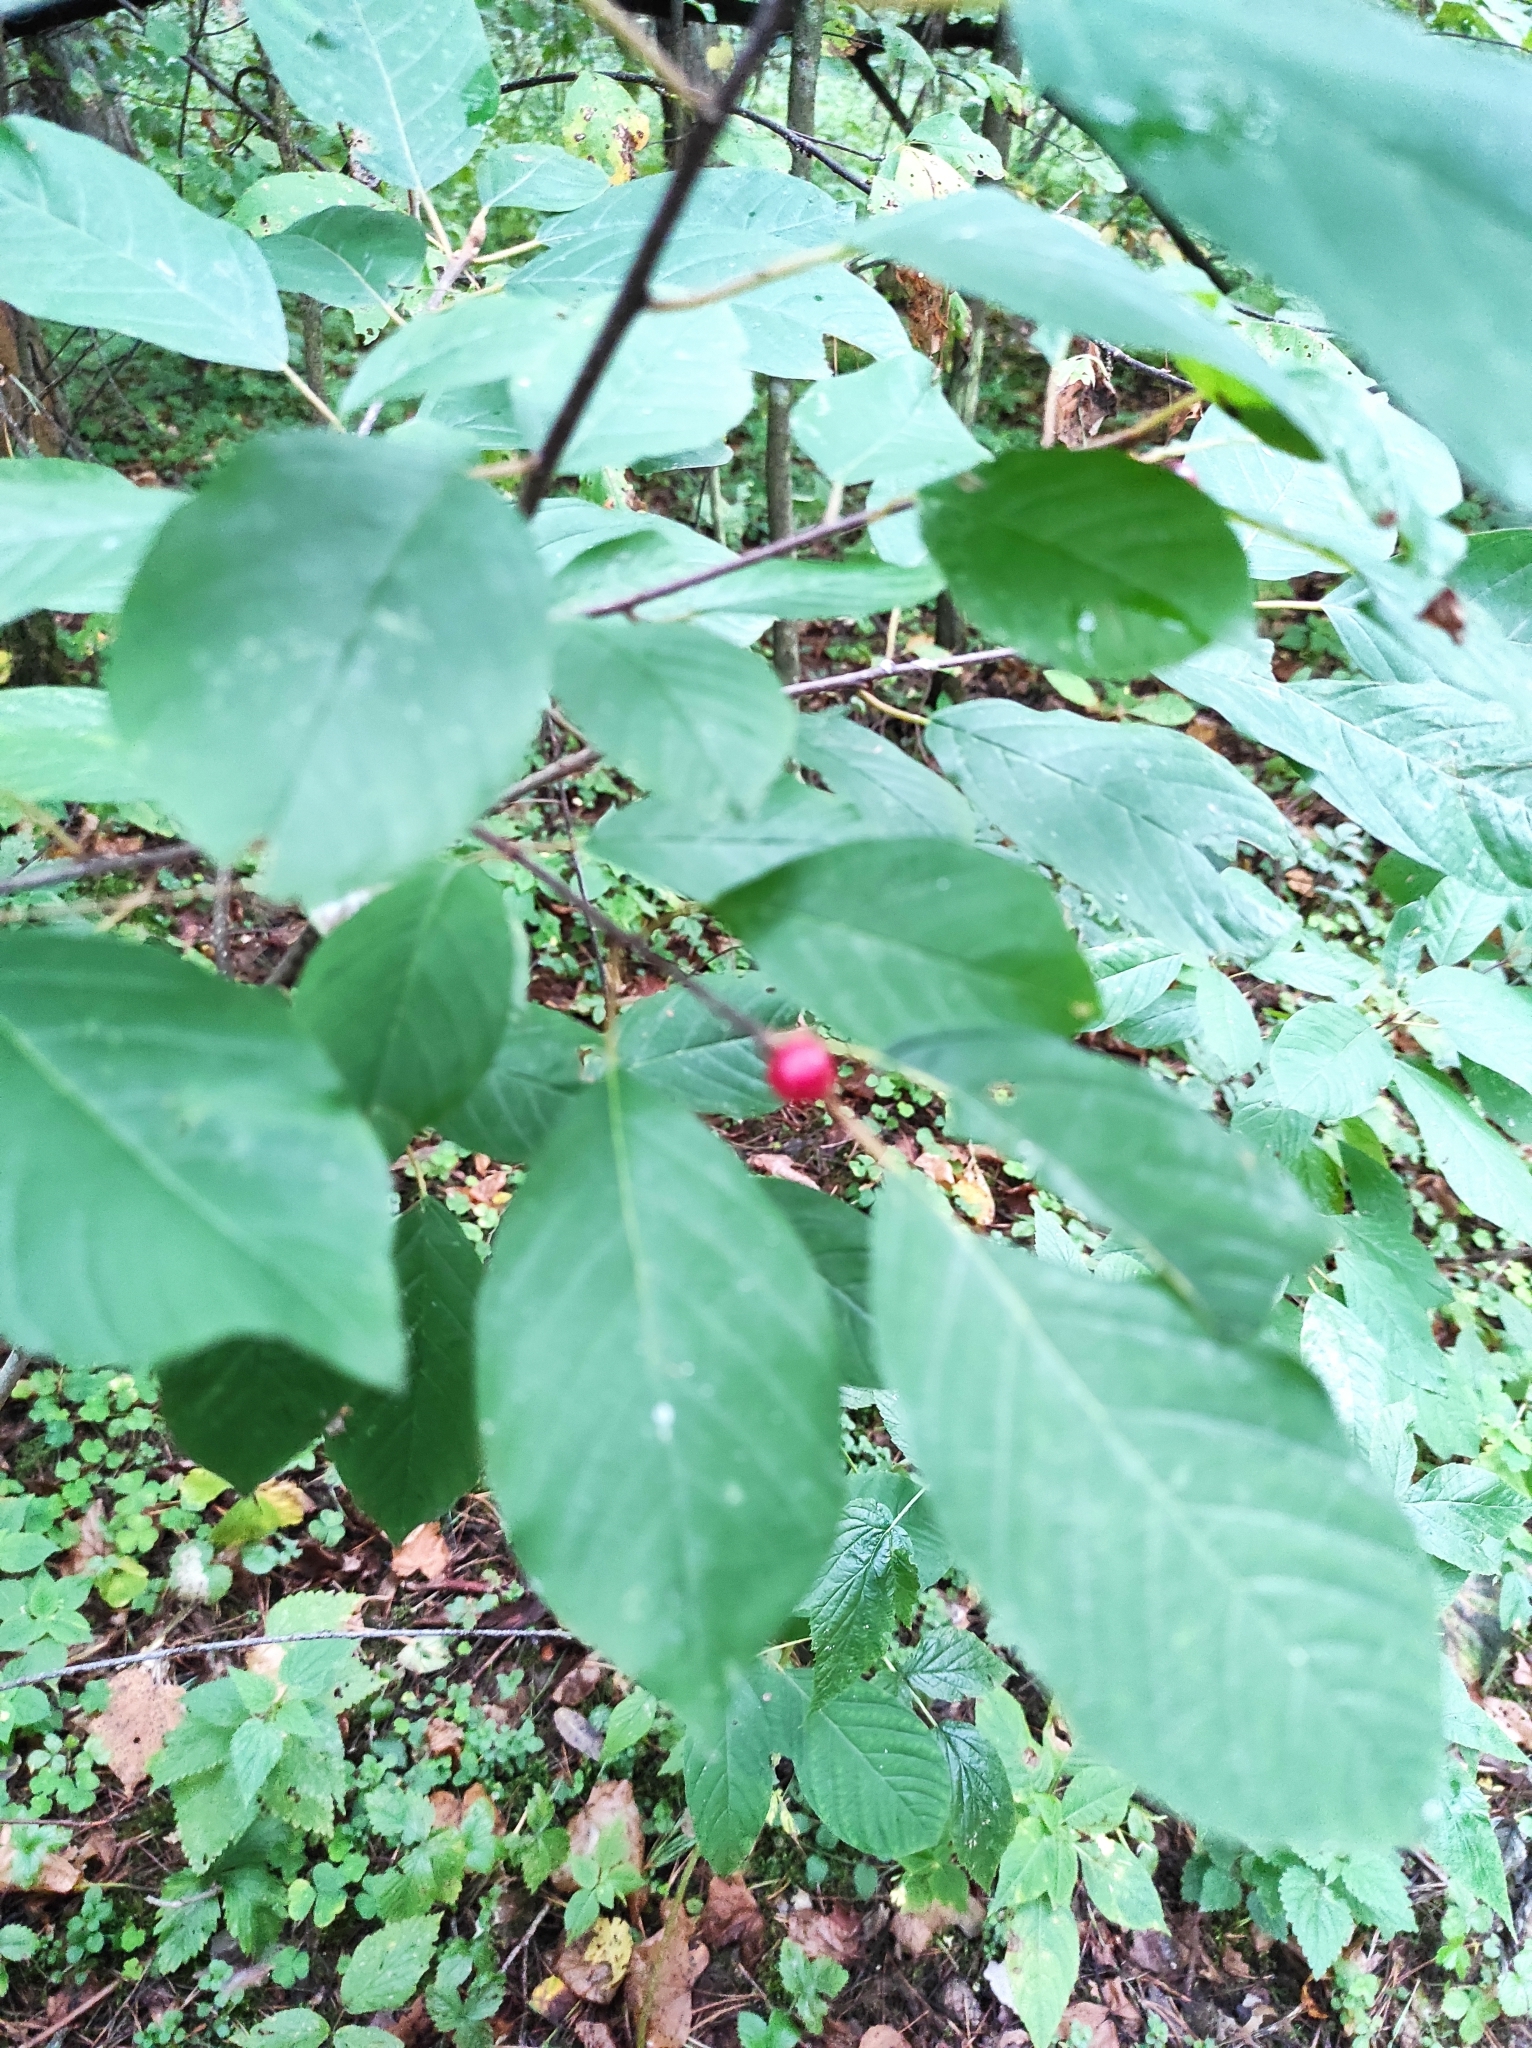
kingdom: Plantae
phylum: Tracheophyta
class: Magnoliopsida
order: Rosales
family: Rhamnaceae
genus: Frangula
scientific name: Frangula alnus
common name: Alder buckthorn
